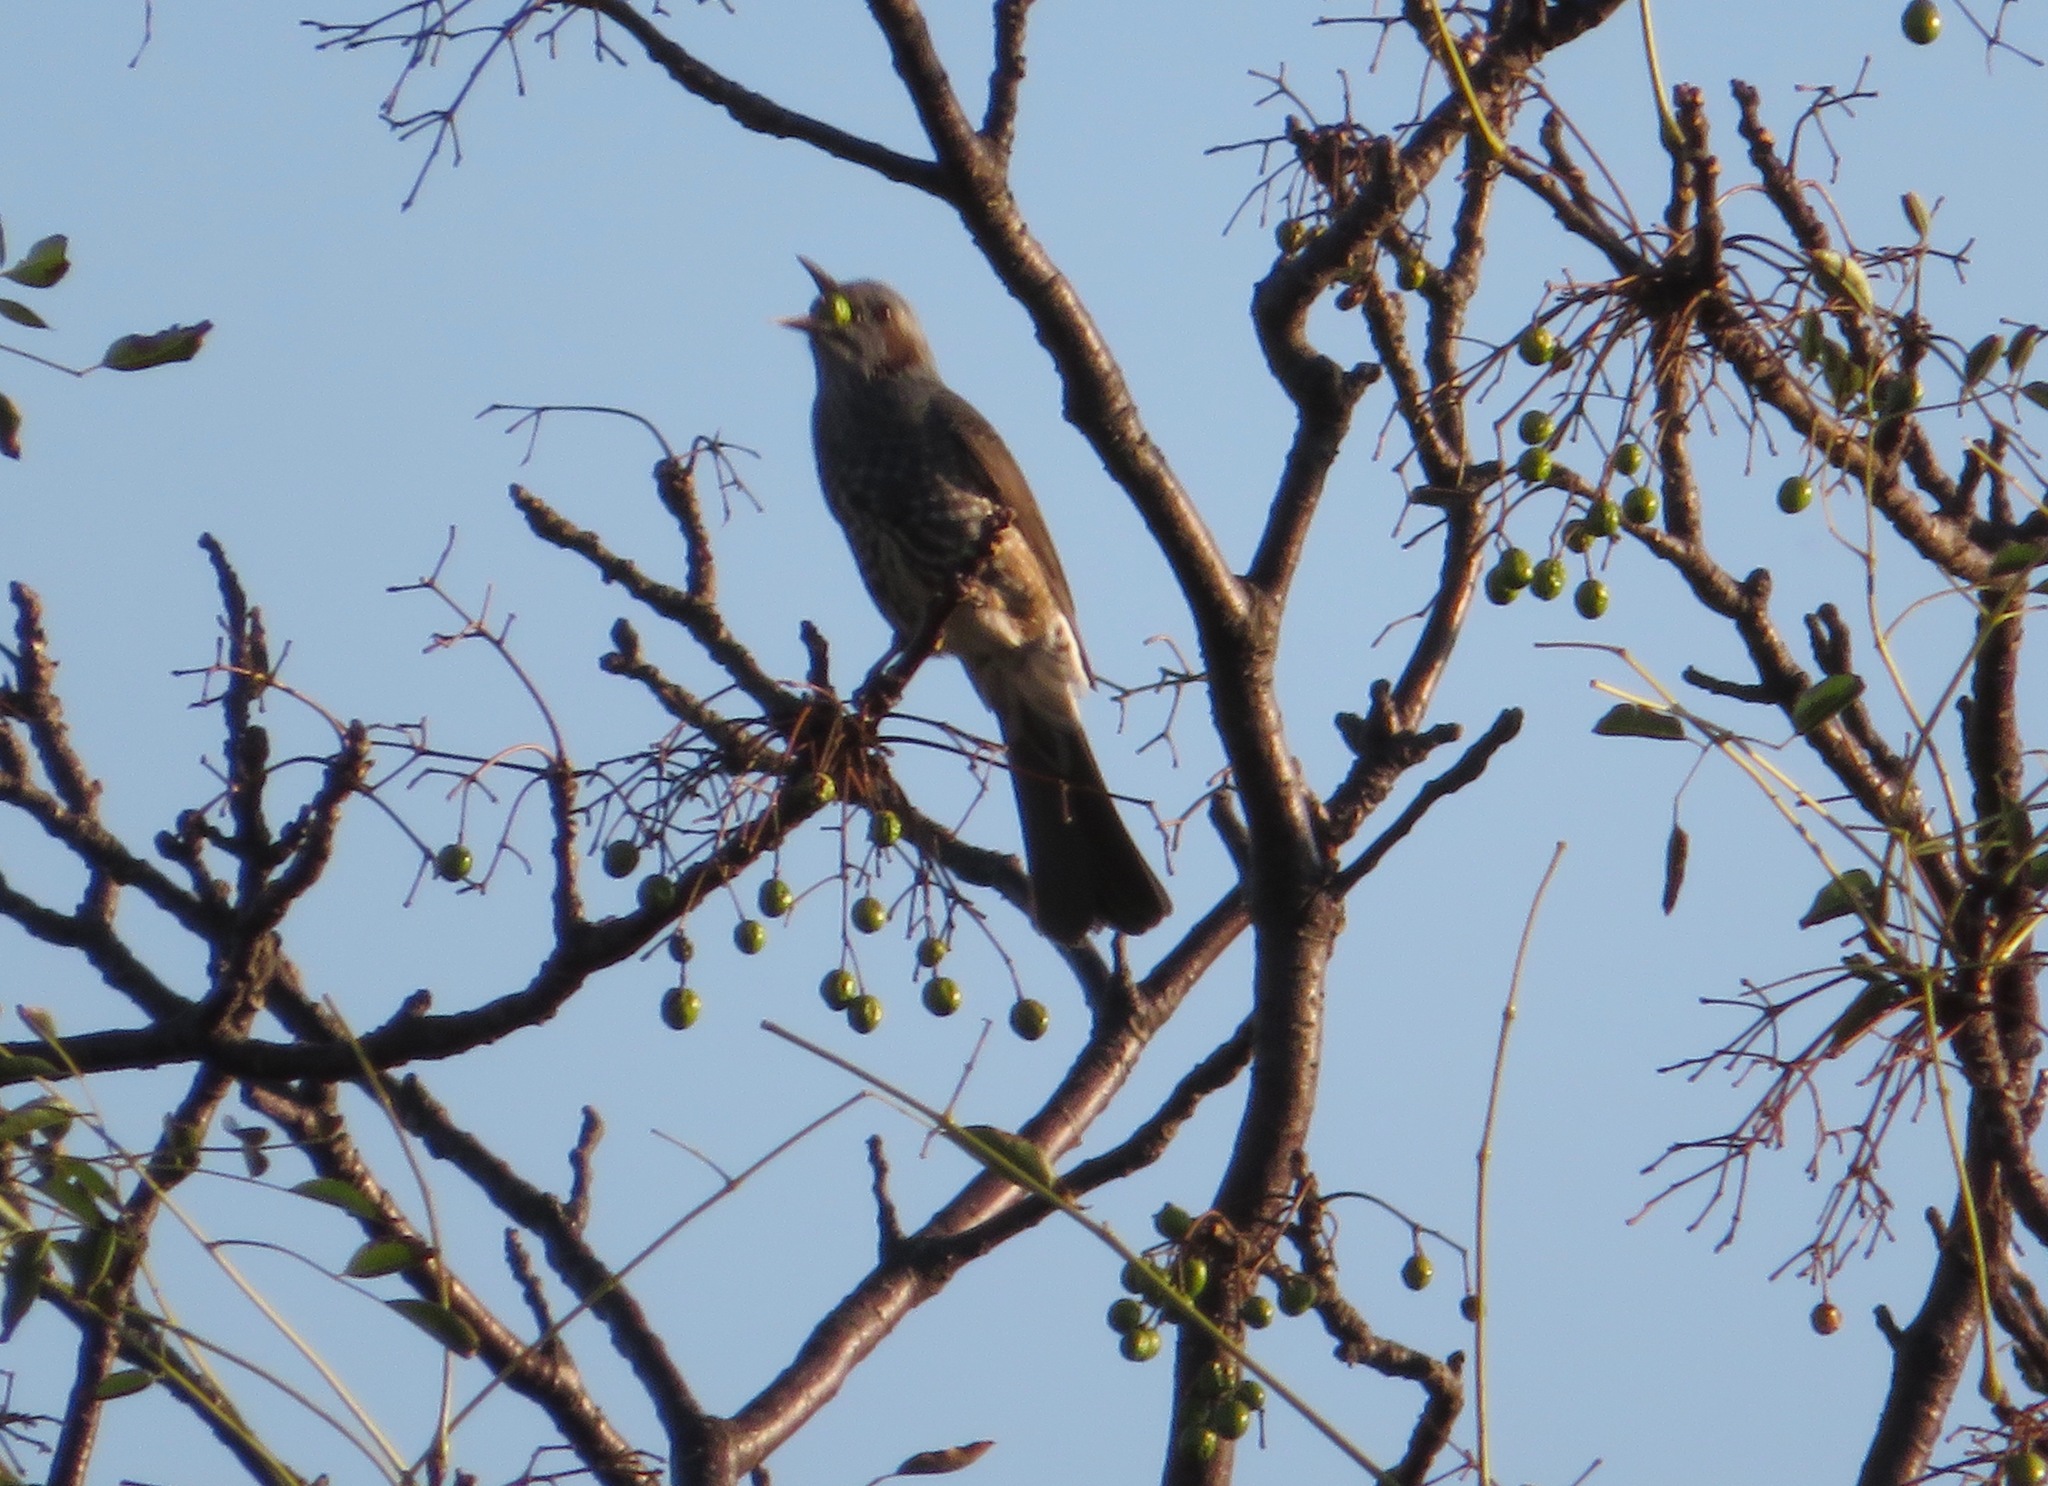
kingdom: Animalia
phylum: Chordata
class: Aves
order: Passeriformes
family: Pycnonotidae
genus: Hypsipetes
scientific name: Hypsipetes amaurotis
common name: Brown-eared bulbul
